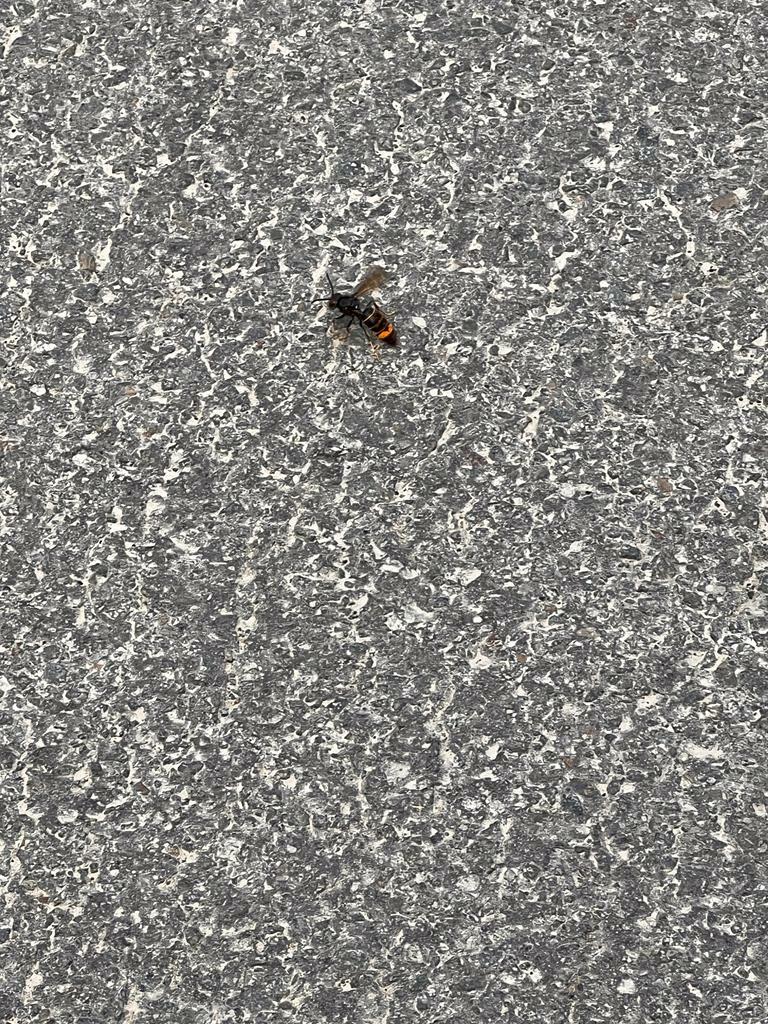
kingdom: Animalia
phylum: Arthropoda
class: Insecta
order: Hymenoptera
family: Vespidae
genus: Vespa
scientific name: Vespa velutina
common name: Asian hornet
